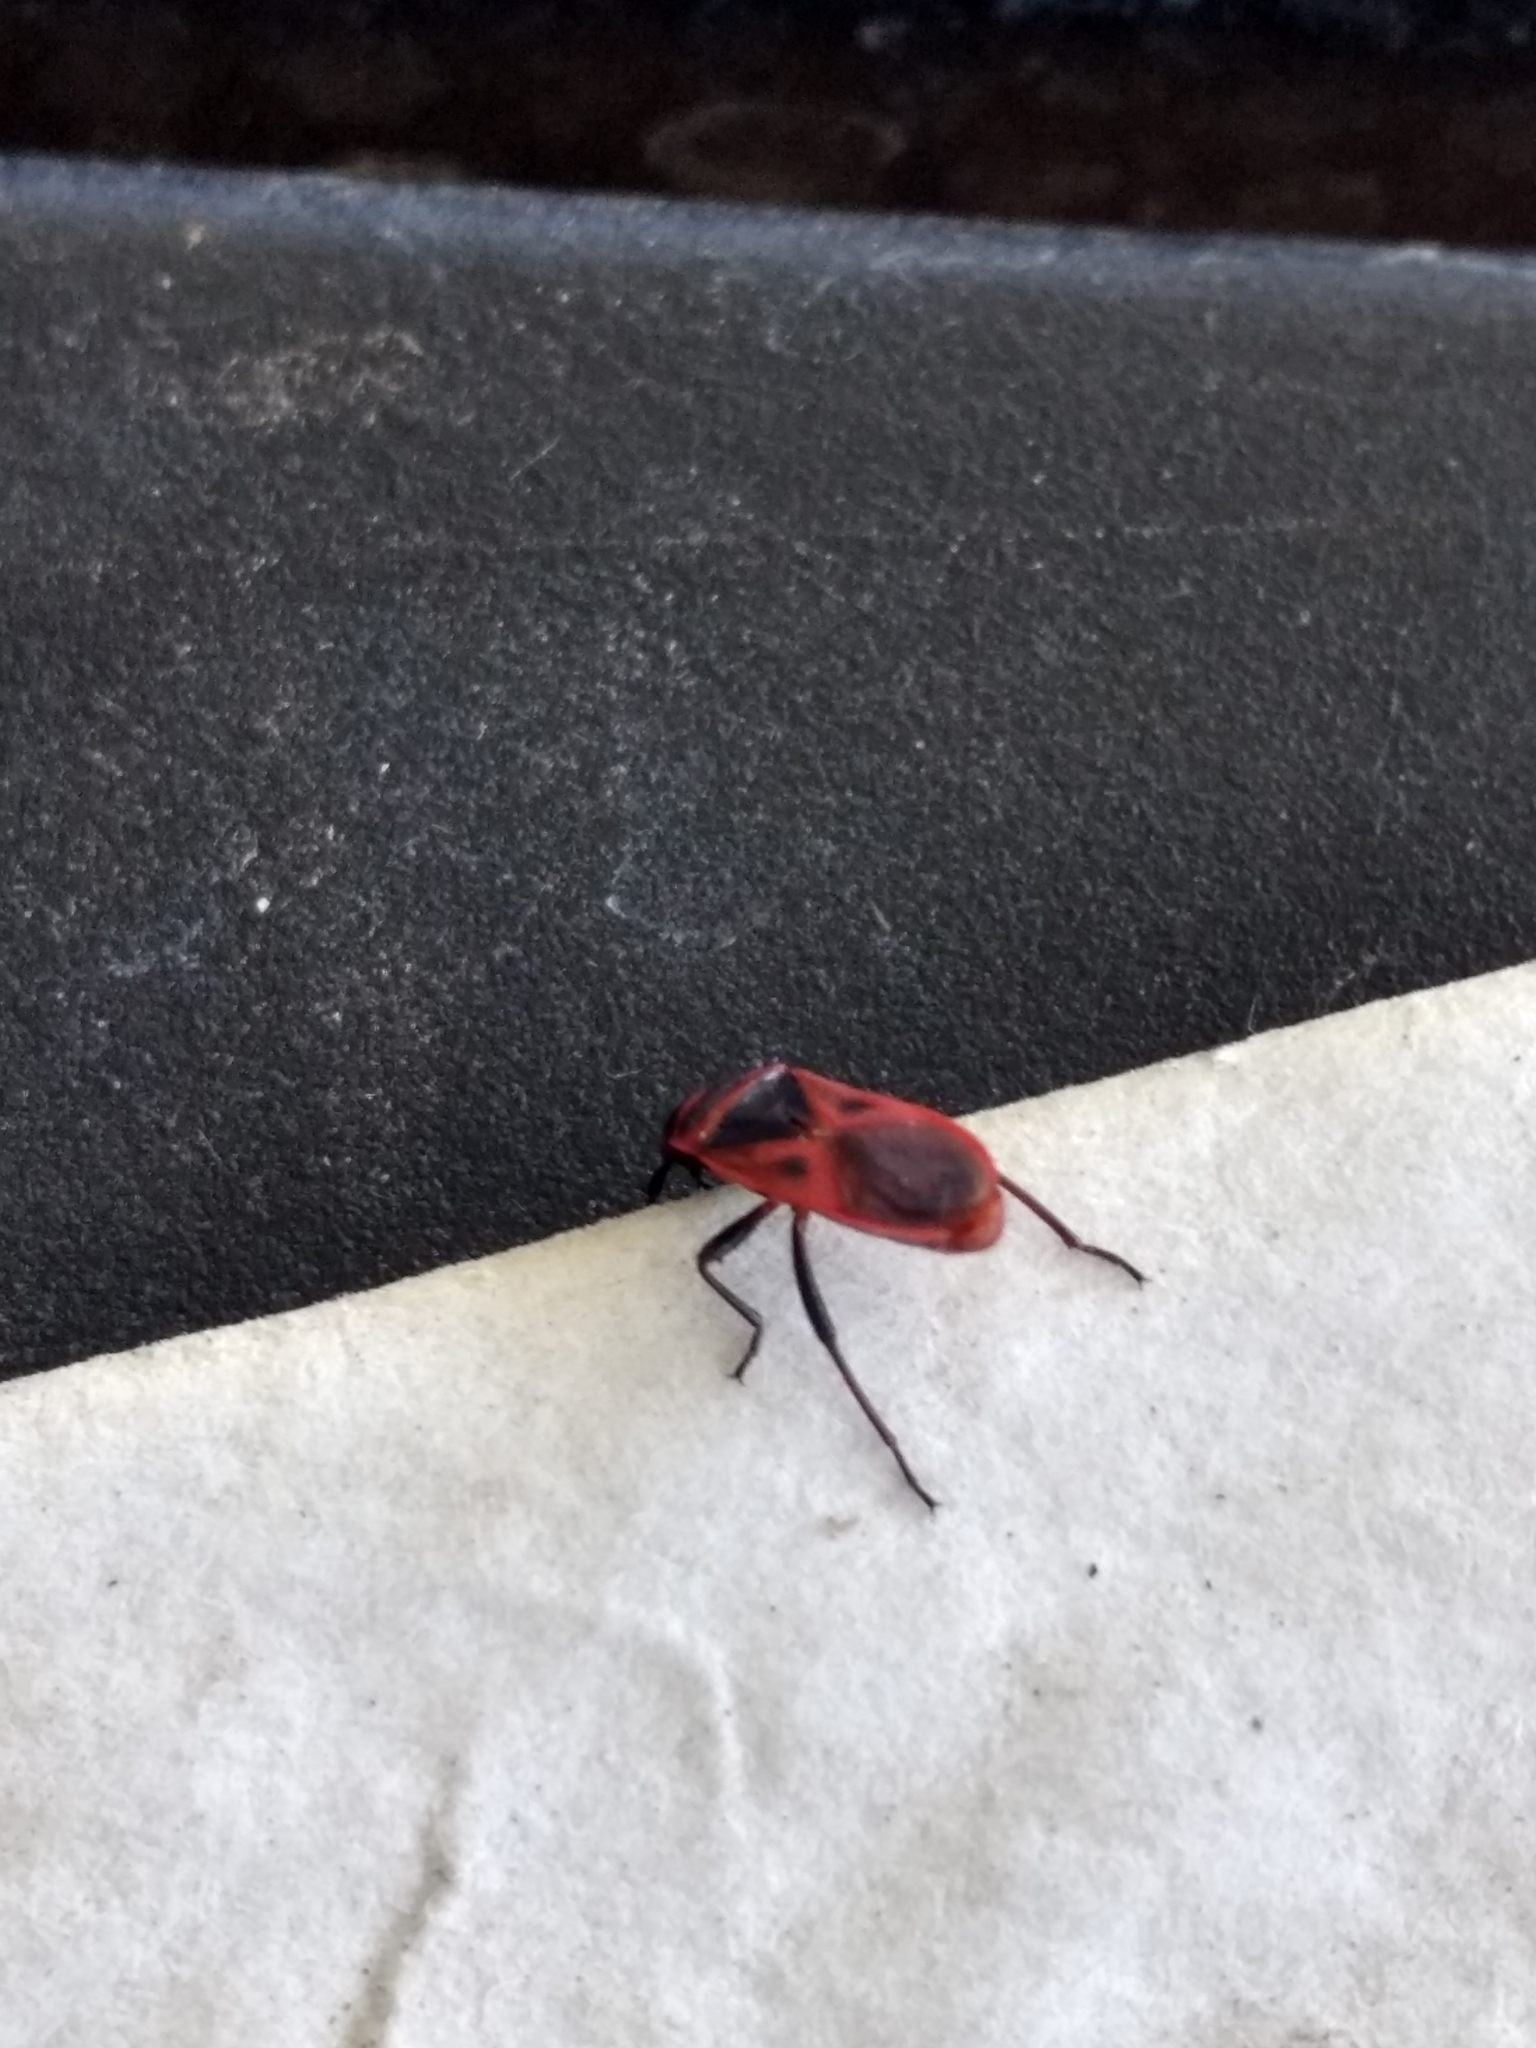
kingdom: Animalia
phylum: Arthropoda
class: Insecta
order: Hemiptera
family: Pyrrhocoridae
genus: Scantius
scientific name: Scantius aegyptius
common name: Red bug
